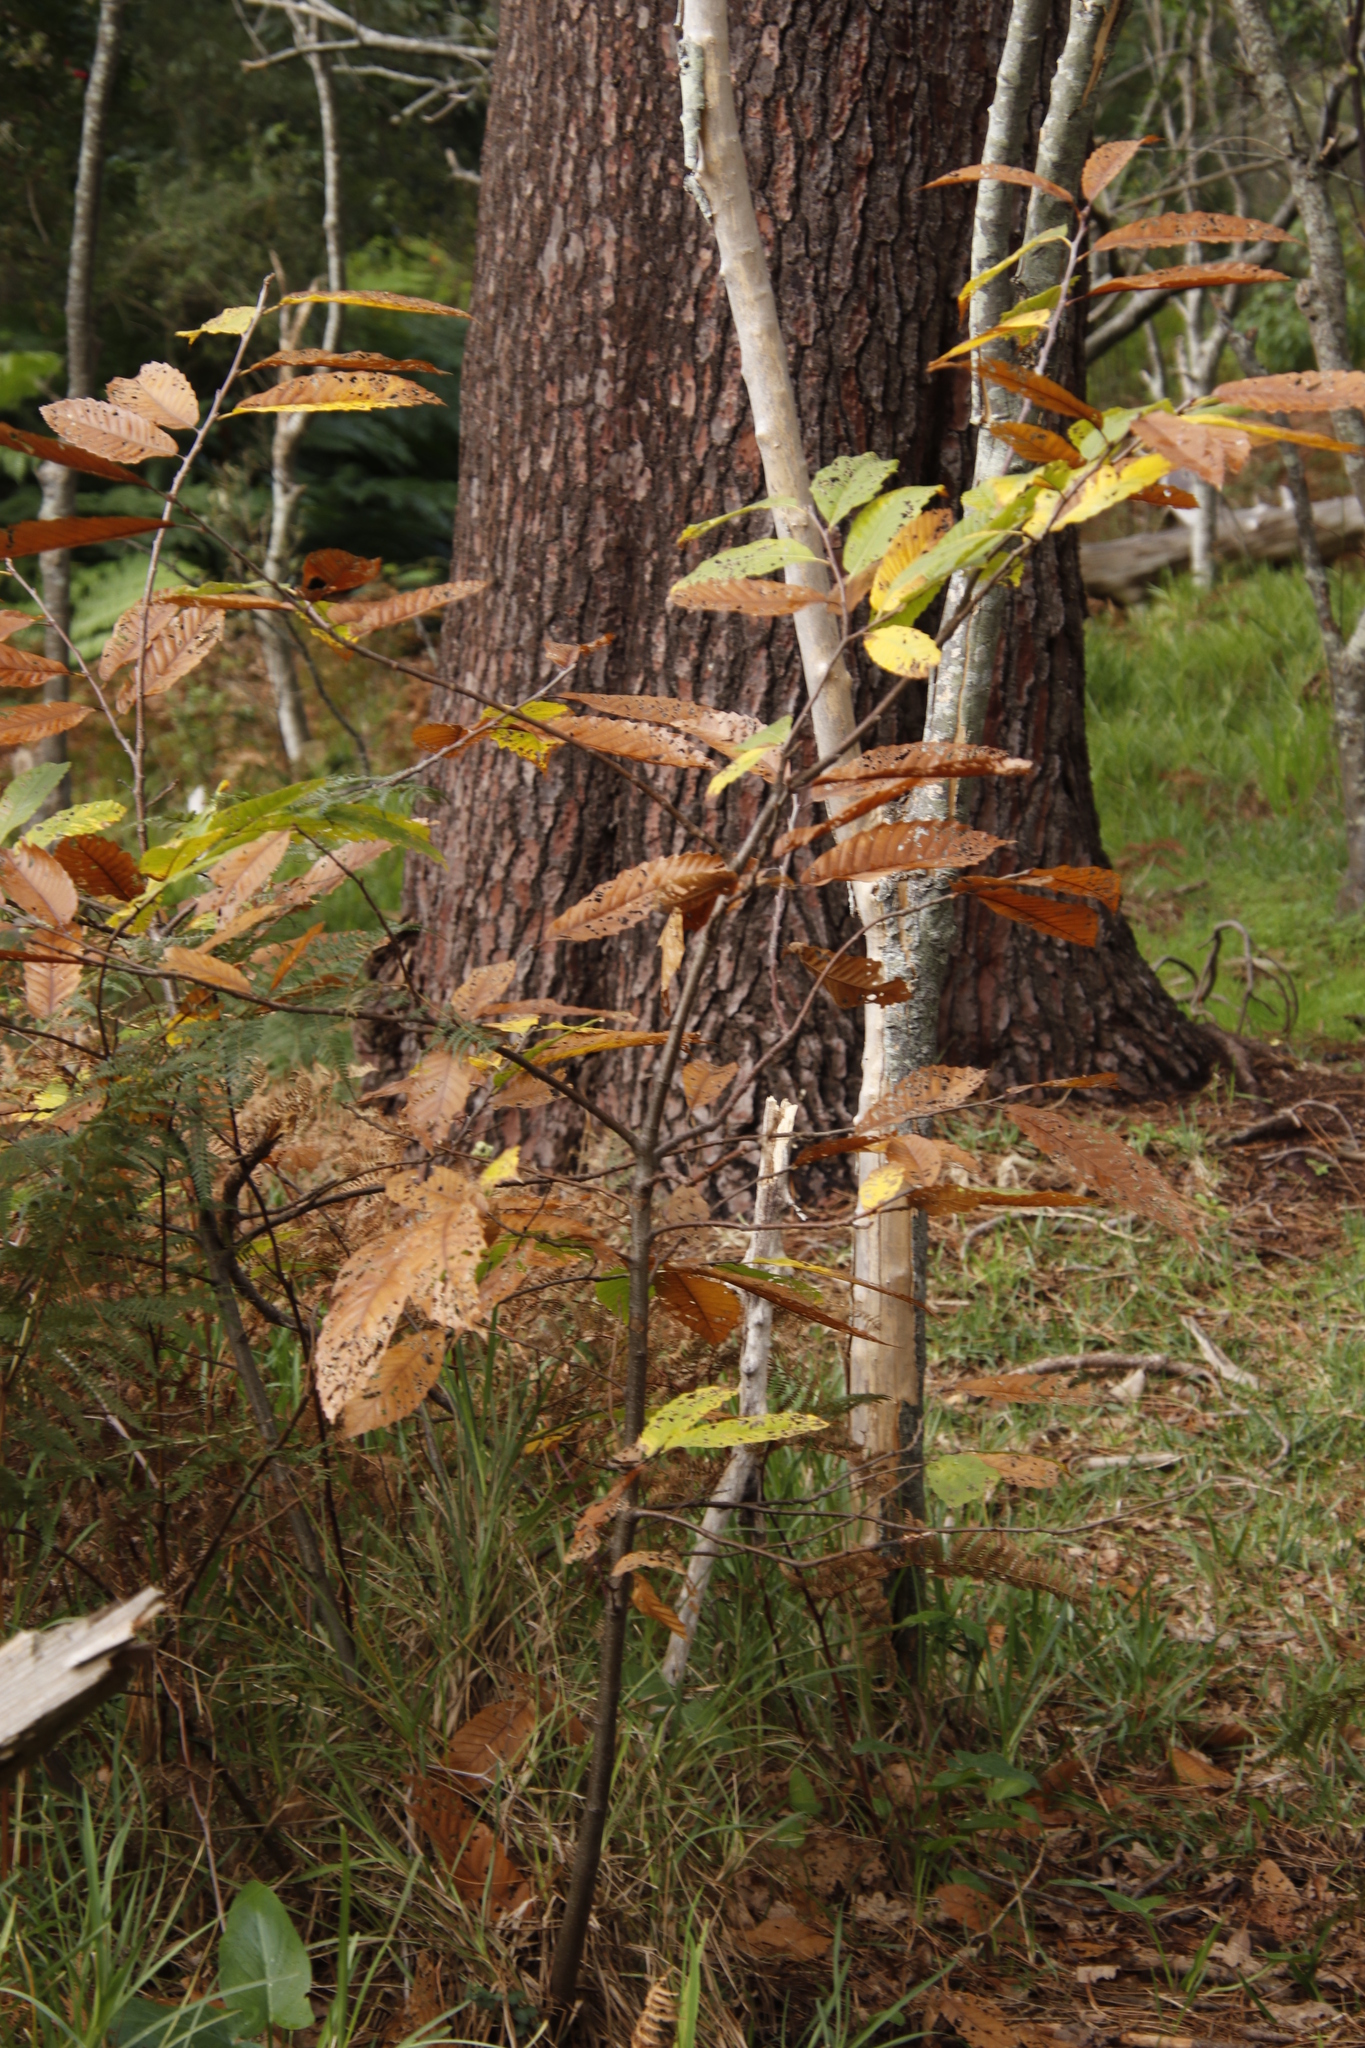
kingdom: Plantae
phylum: Tracheophyta
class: Magnoliopsida
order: Fagales
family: Fagaceae
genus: Castanea
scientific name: Castanea sativa
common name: Sweet chestnut
